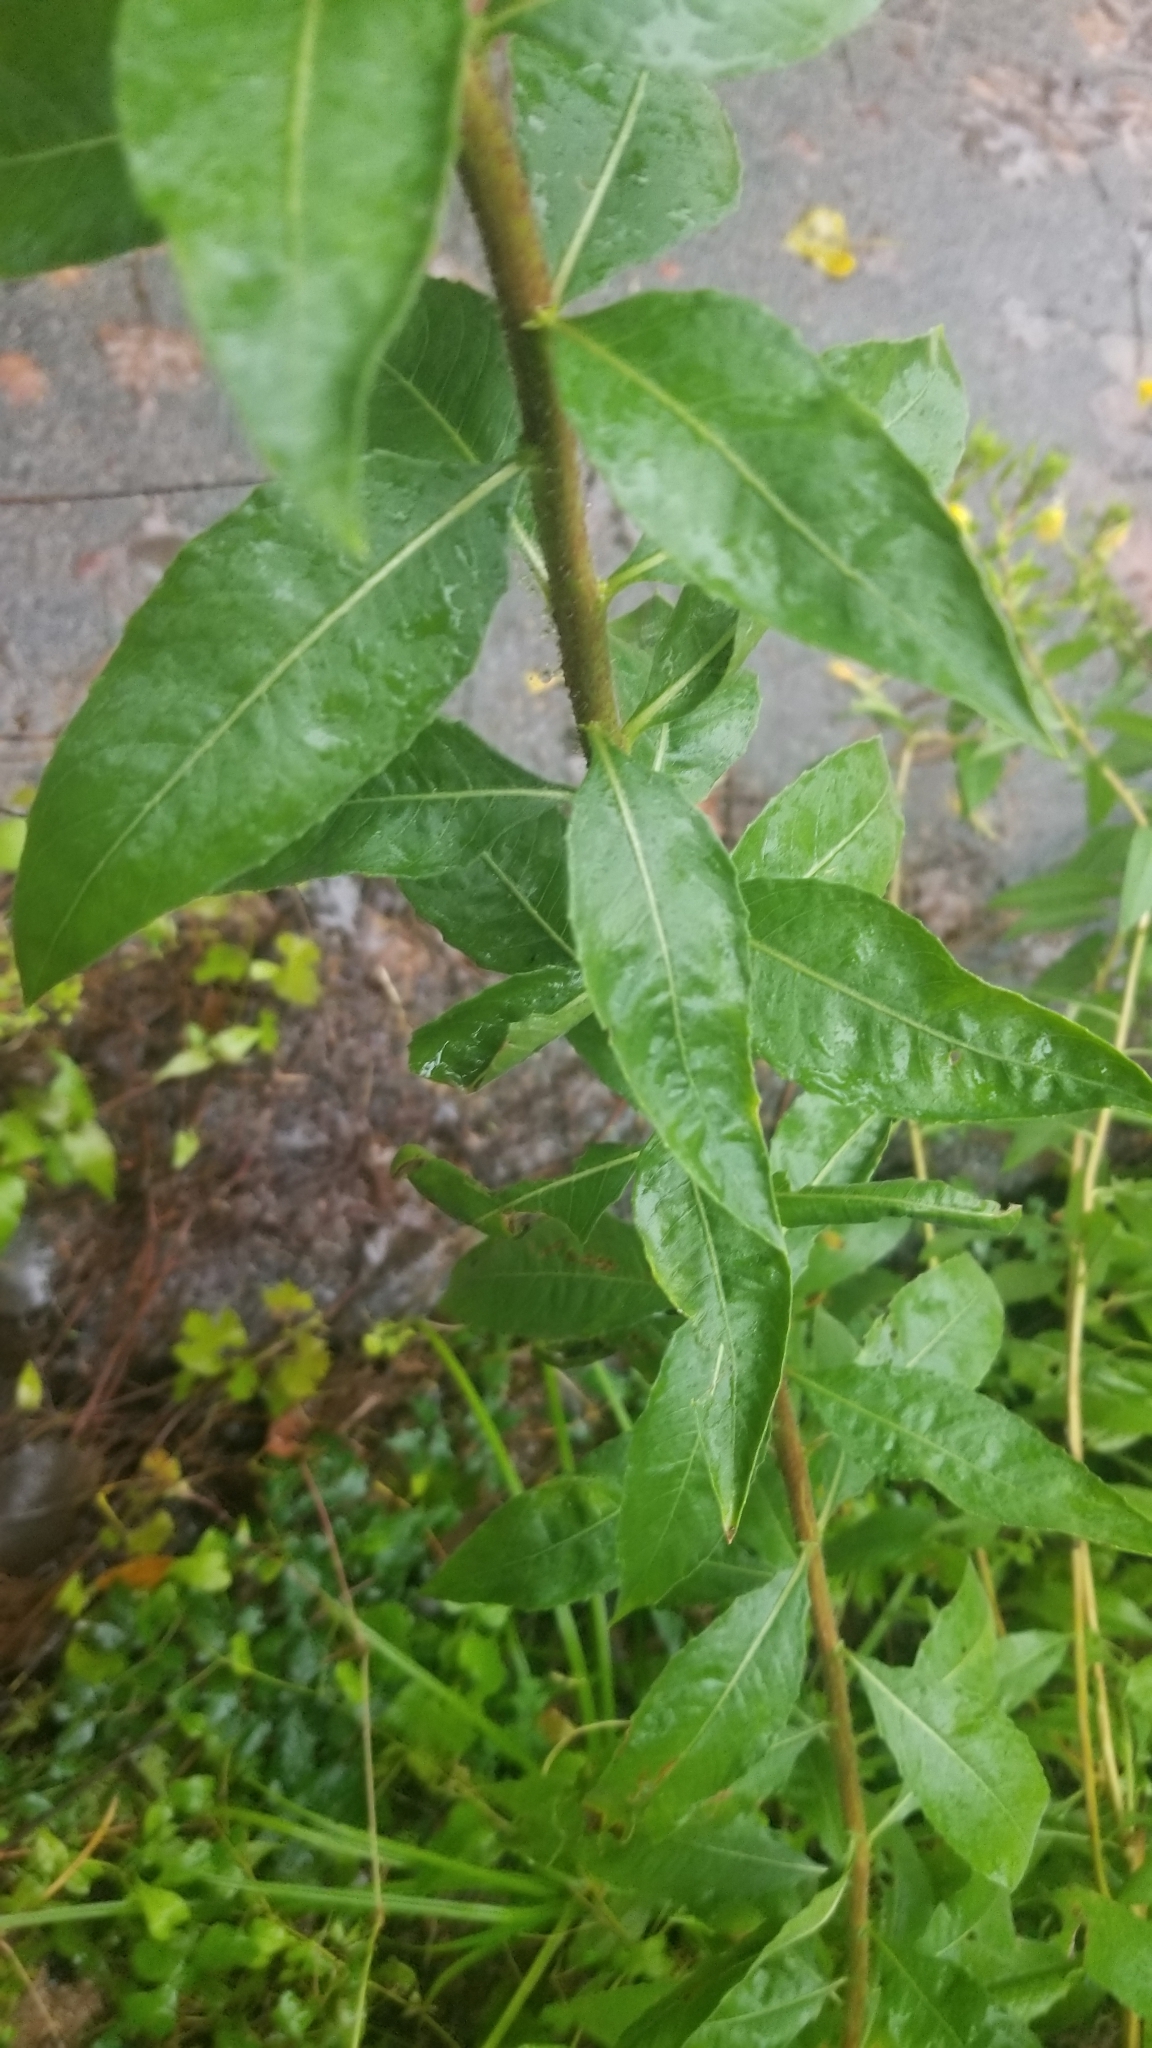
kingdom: Plantae
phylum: Tracheophyta
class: Magnoliopsida
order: Myrtales
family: Onagraceae
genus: Oenothera
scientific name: Oenothera biennis
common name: Common evening-primrose
